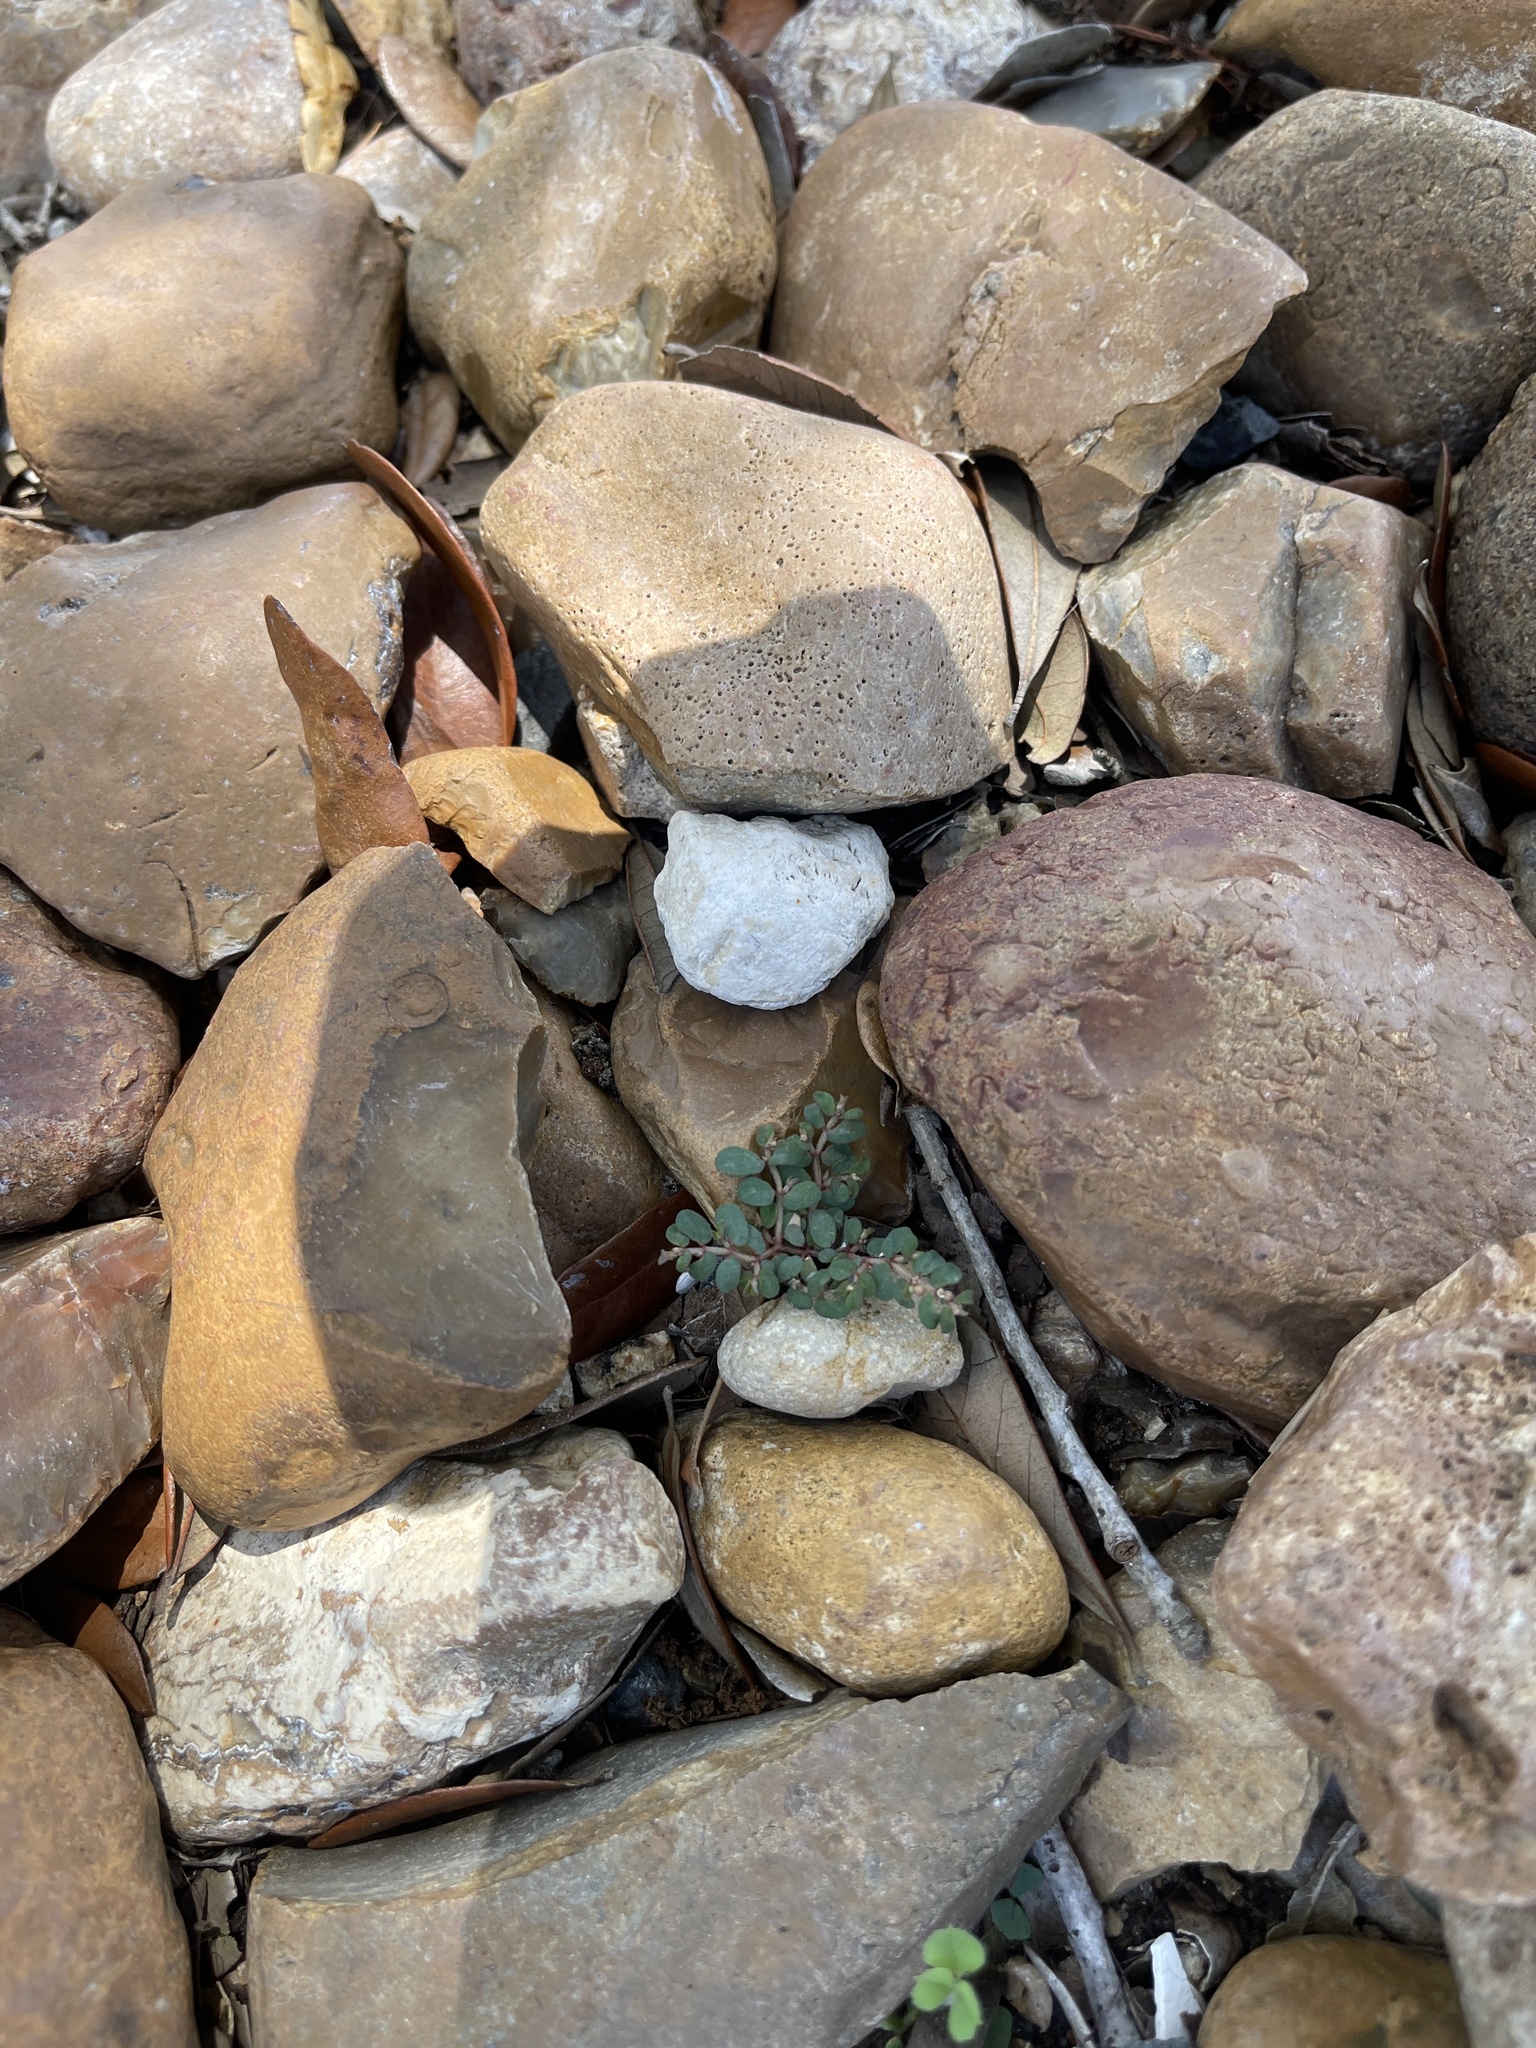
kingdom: Plantae
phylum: Tracheophyta
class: Magnoliopsida
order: Malpighiales
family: Euphorbiaceae
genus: Euphorbia
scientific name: Euphorbia maculata
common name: Spotted spurge
